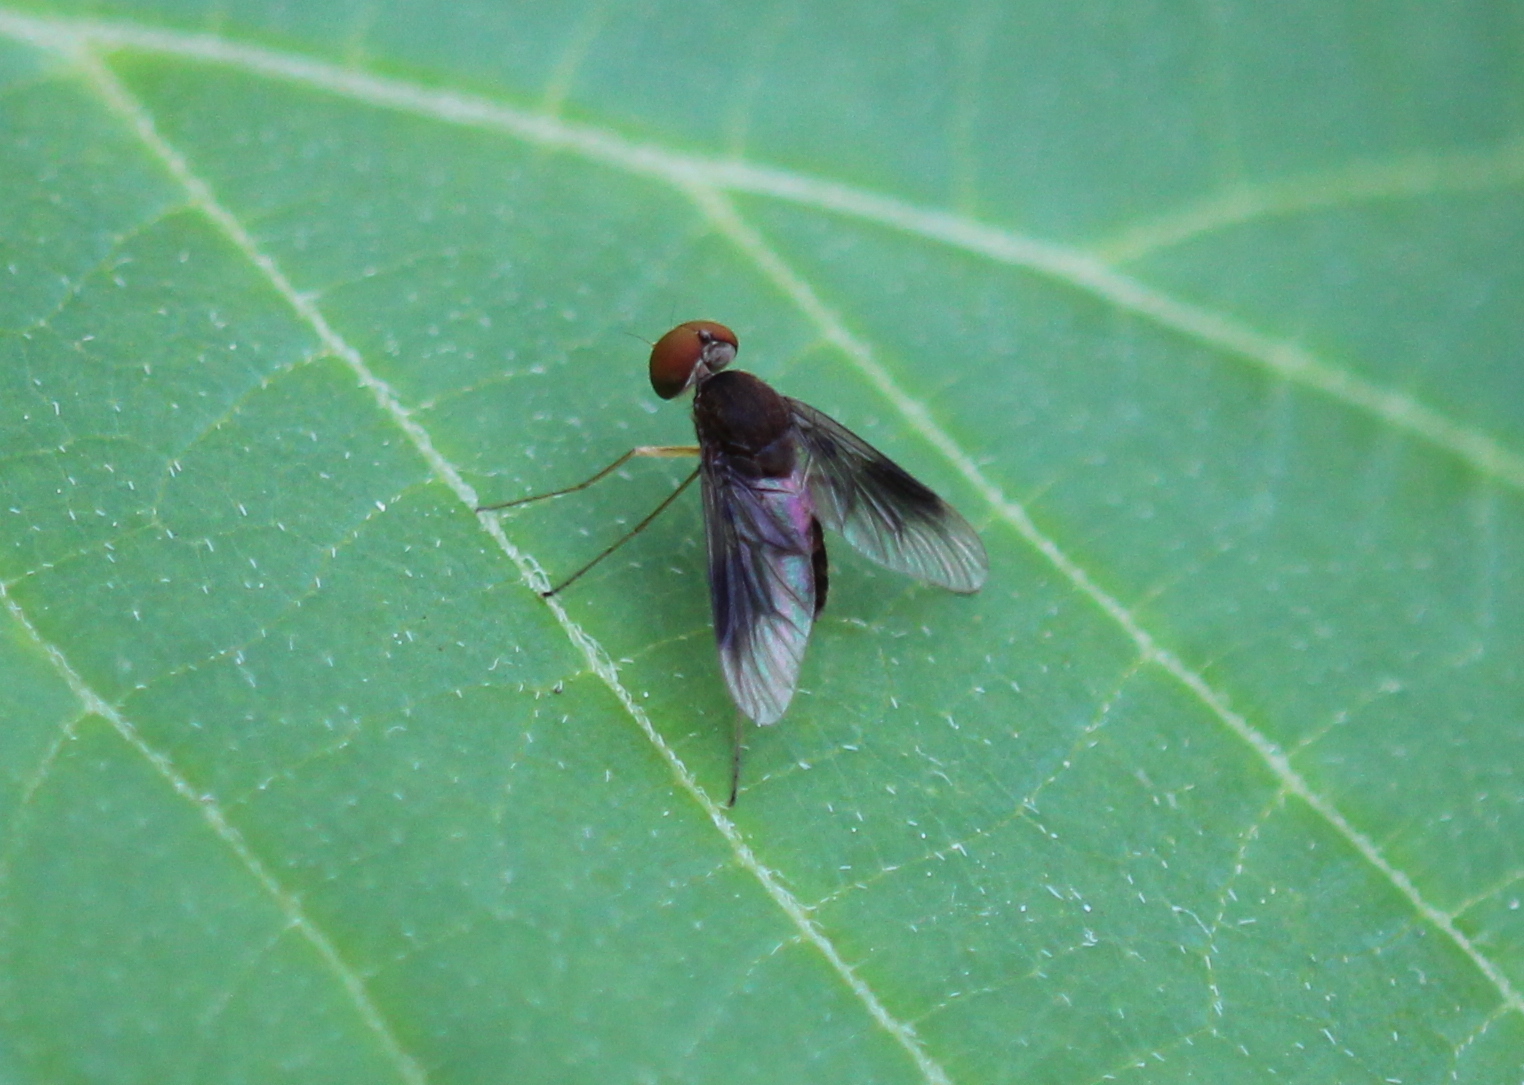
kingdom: Animalia
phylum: Arthropoda
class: Insecta
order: Diptera
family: Rhagionidae
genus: Chrysopilus
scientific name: Chrysopilus quadratus
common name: Quadrate snipe fly
